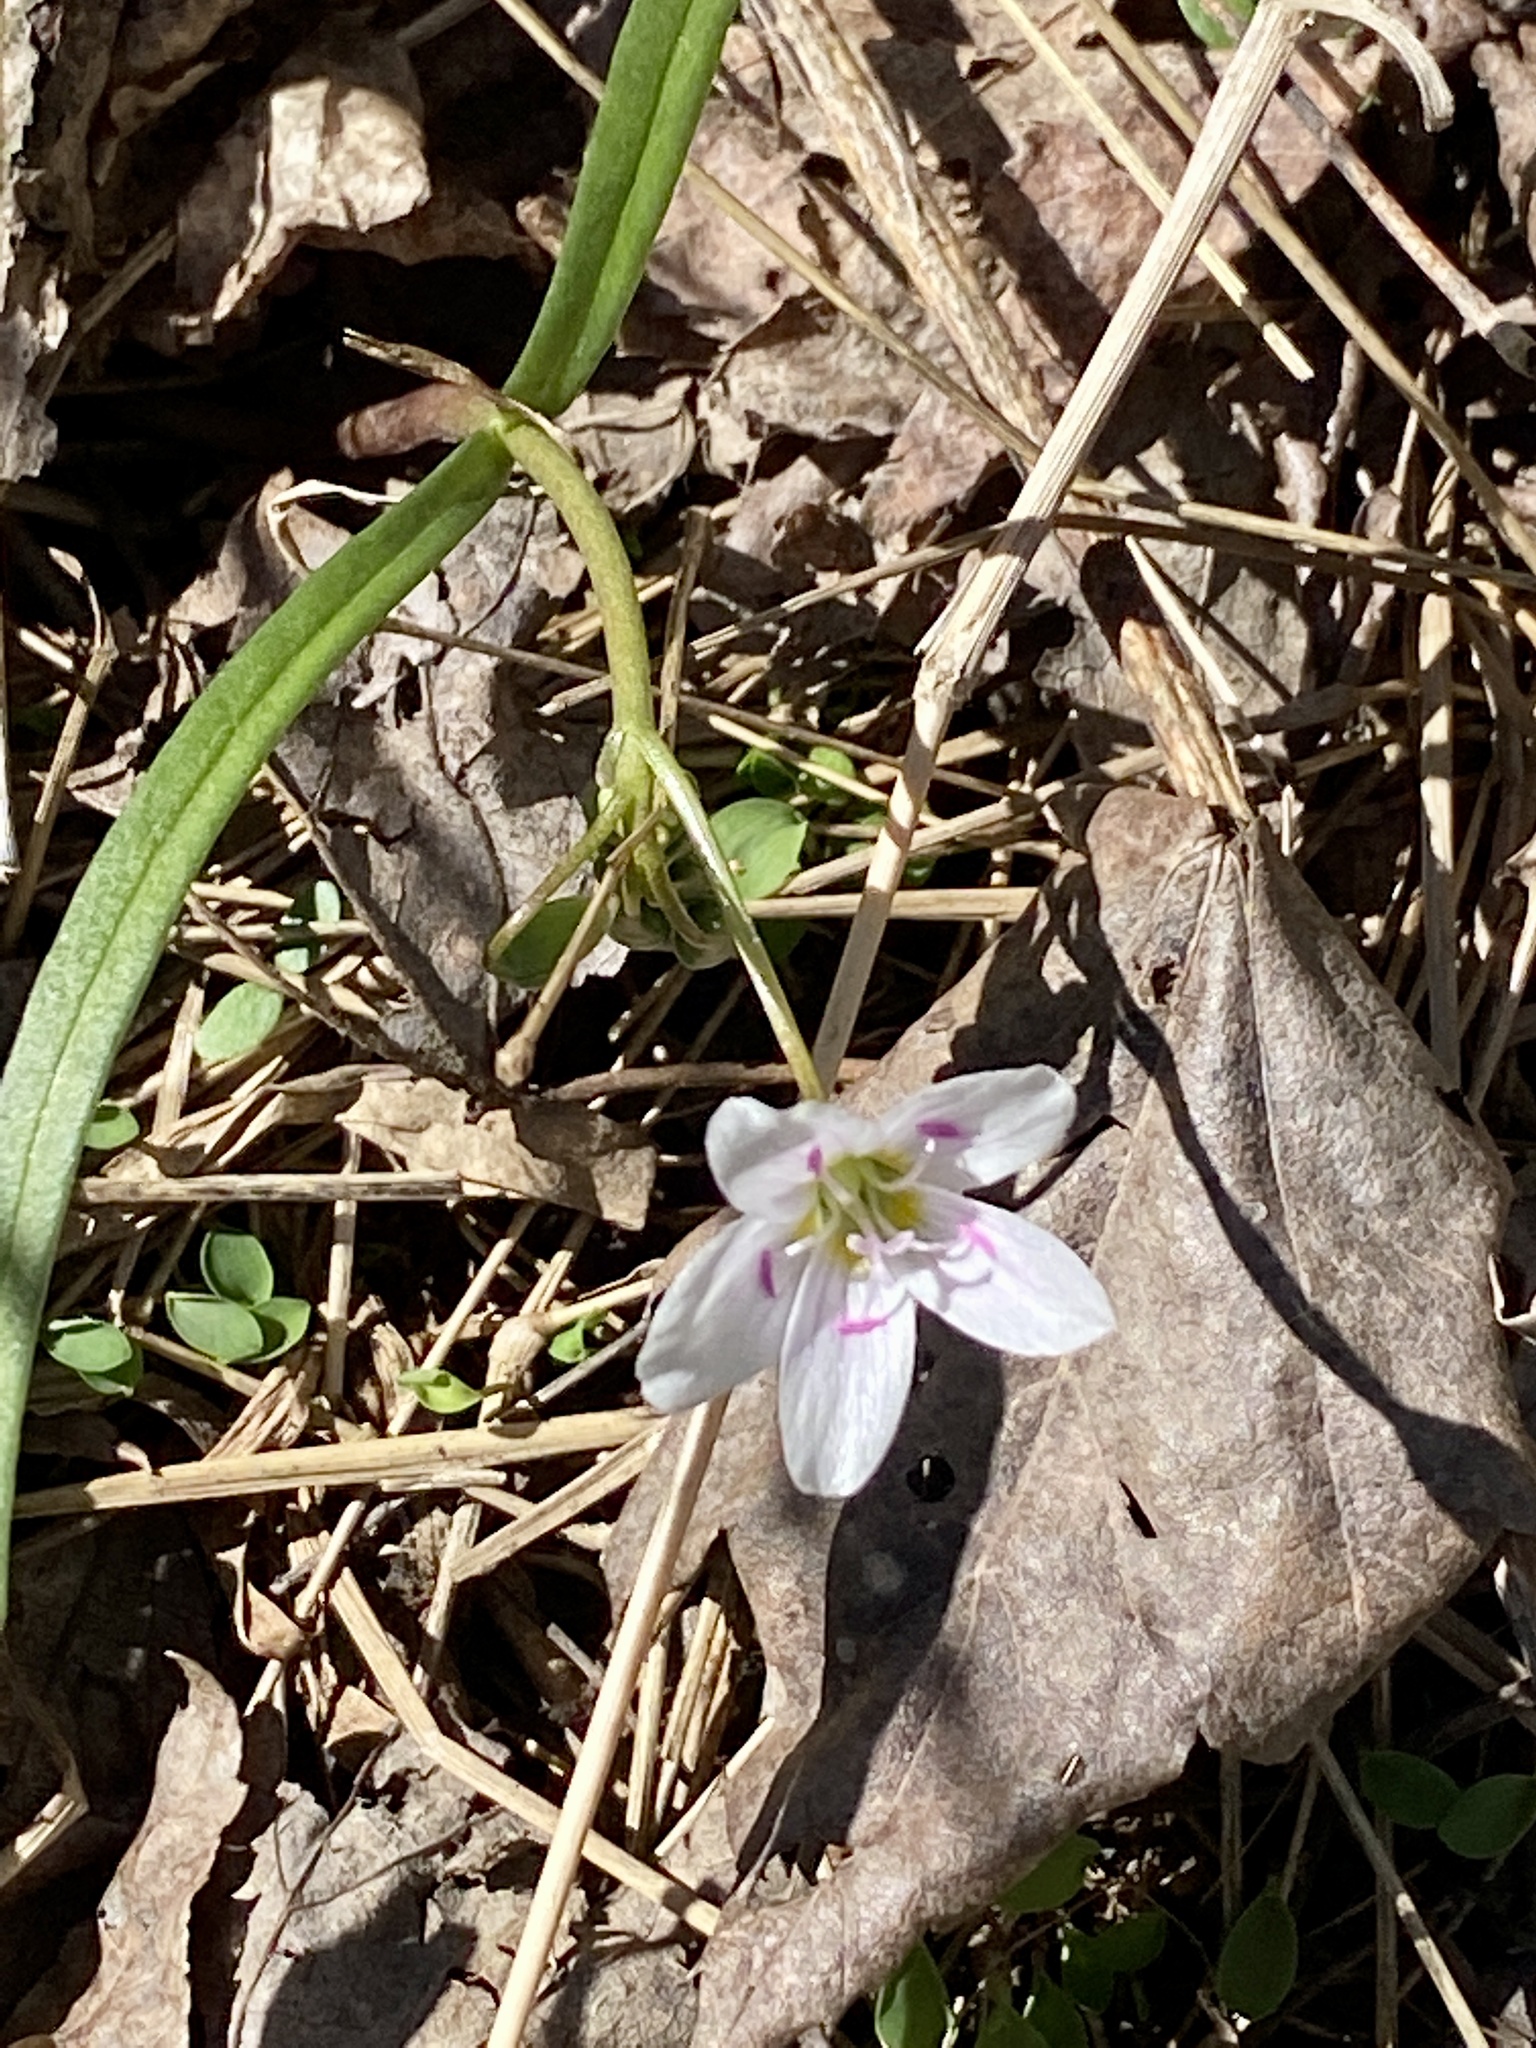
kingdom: Plantae
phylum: Tracheophyta
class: Magnoliopsida
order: Caryophyllales
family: Montiaceae
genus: Claytonia
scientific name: Claytonia virginica
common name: Virginia springbeauty
